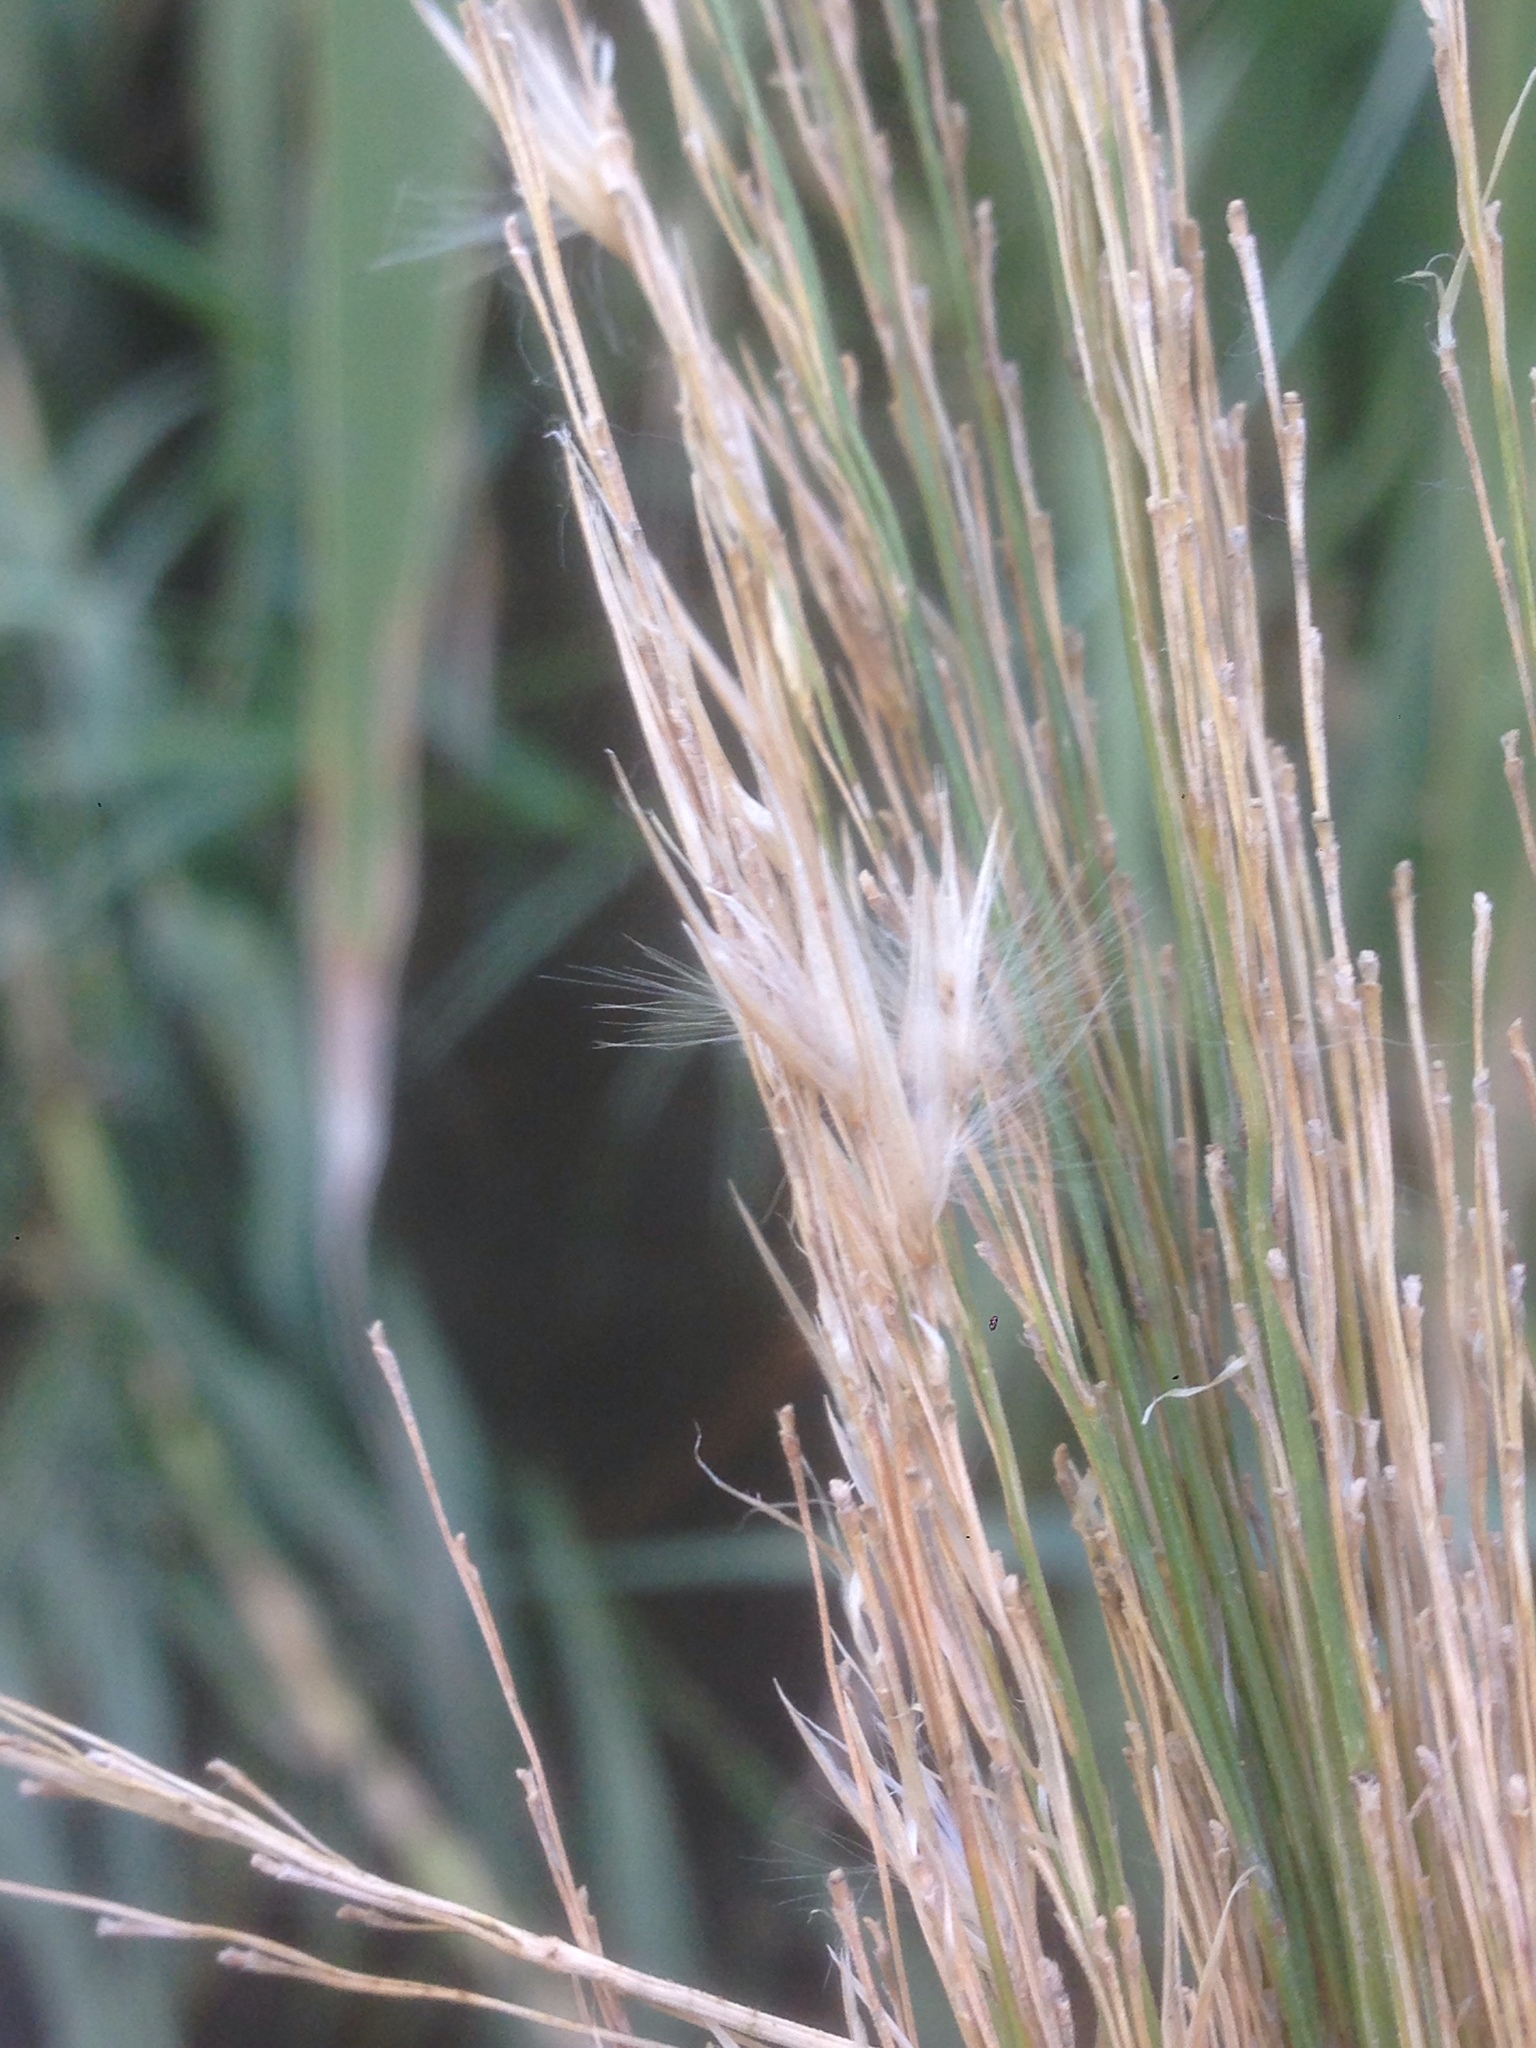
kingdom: Plantae
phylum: Tracheophyta
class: Liliopsida
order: Poales
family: Poaceae
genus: Arundo
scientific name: Arundo donax
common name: Giant reed
